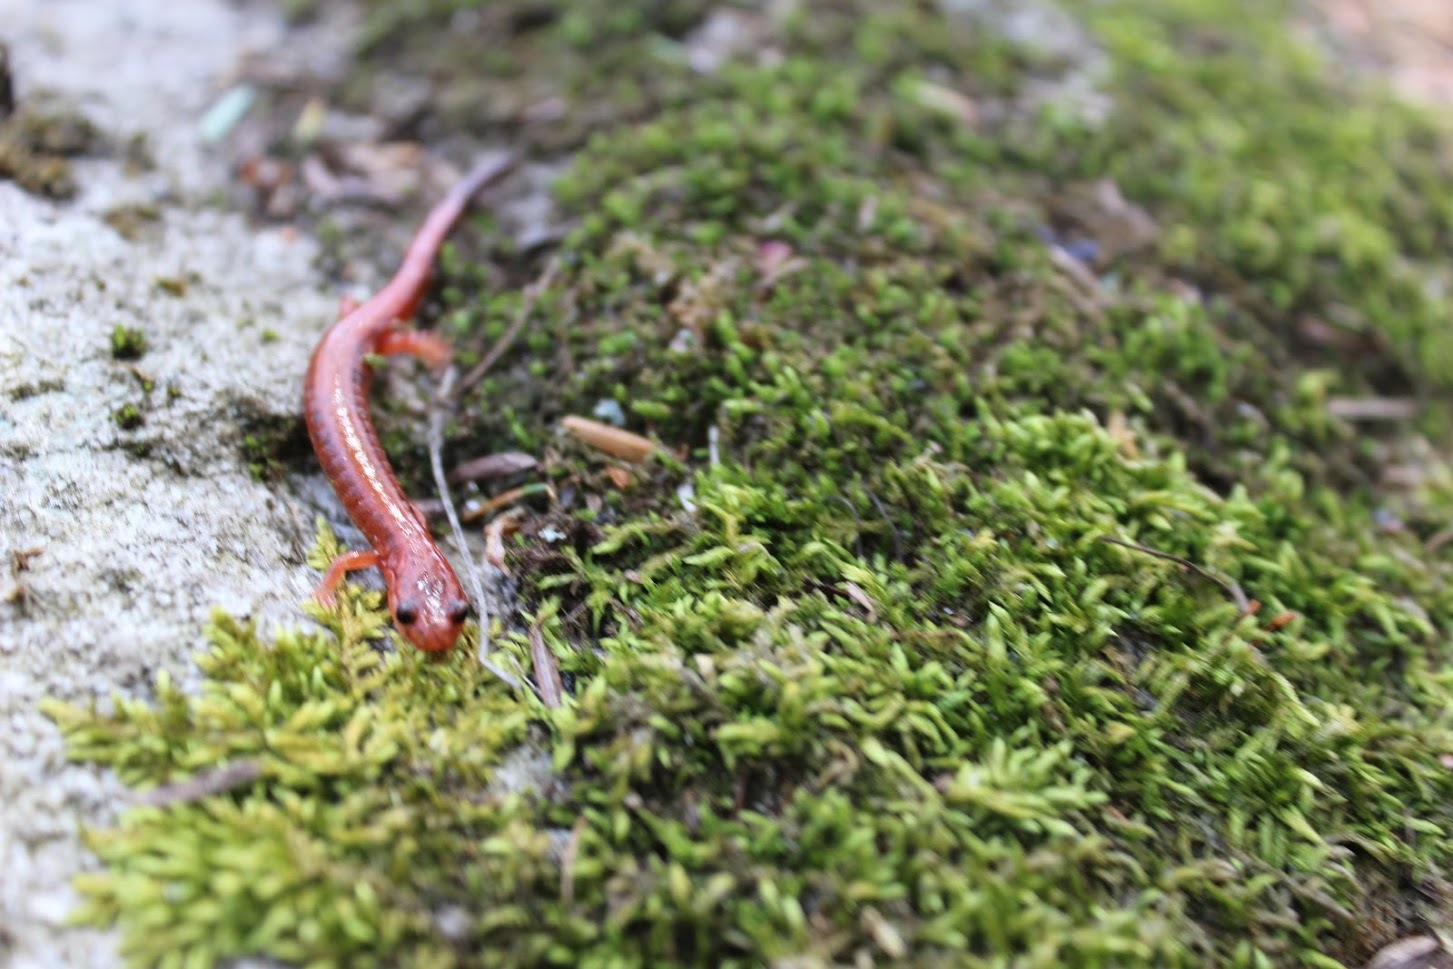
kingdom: Animalia
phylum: Chordata
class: Amphibia
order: Caudata
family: Plethodontidae
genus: Plethodon
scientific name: Plethodon cinereus
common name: Redback salamander
